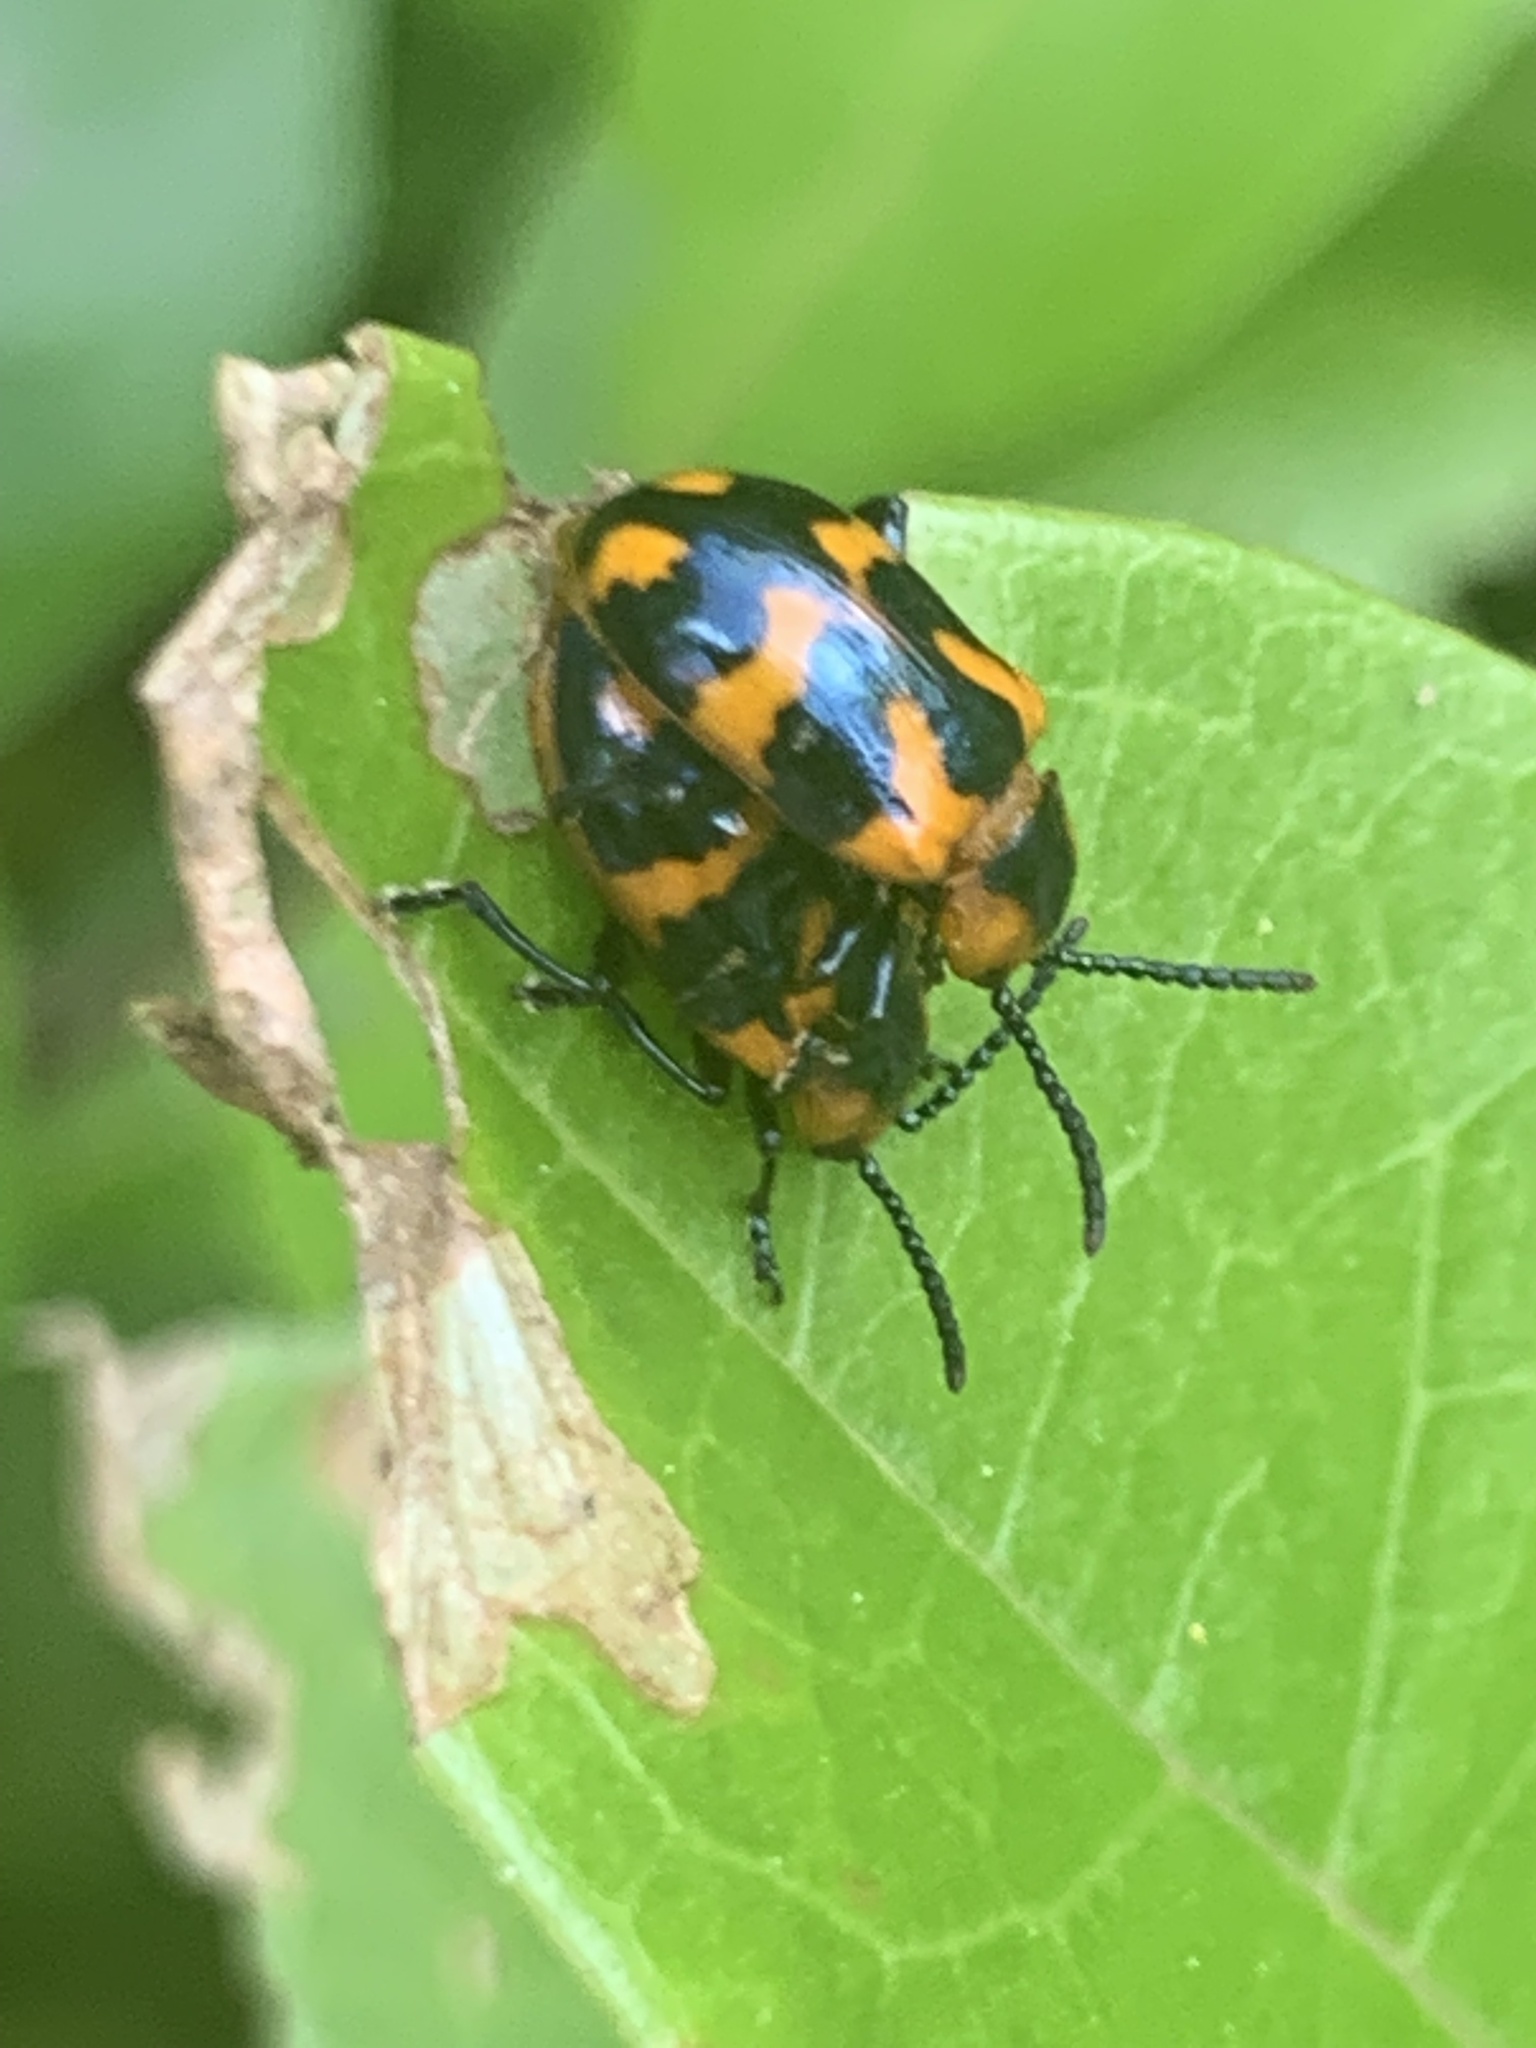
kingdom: Animalia
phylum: Arthropoda
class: Insecta
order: Coleoptera
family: Chrysomelidae
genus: Phyllocharis
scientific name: Phyllocharis
